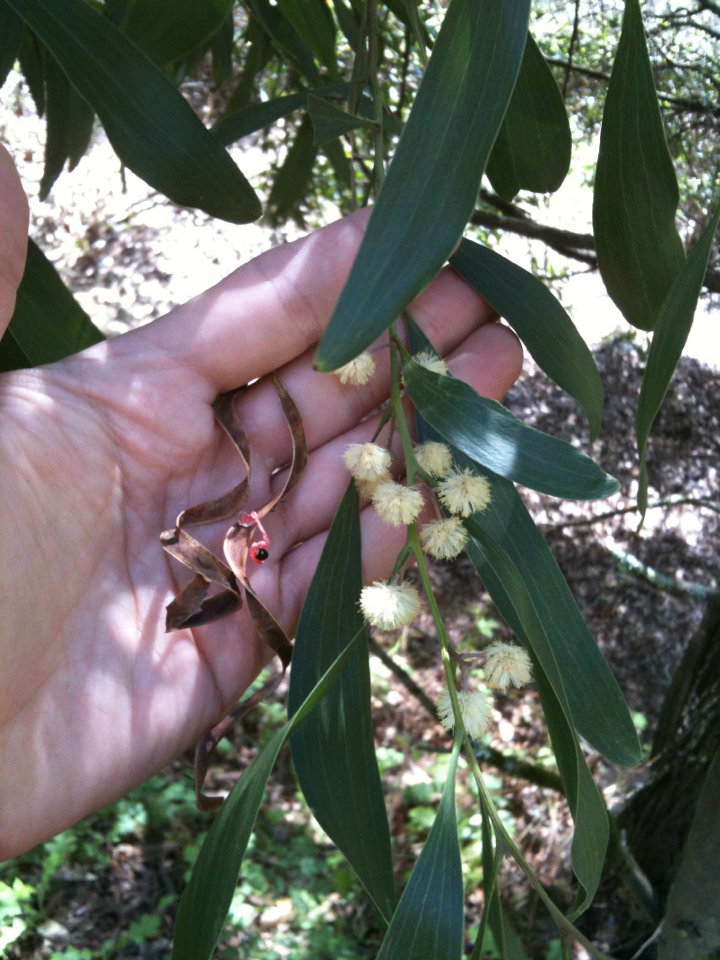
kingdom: Plantae
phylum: Tracheophyta
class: Magnoliopsida
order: Fabales
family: Fabaceae
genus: Acacia
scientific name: Acacia melanoxylon
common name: Blackwood
